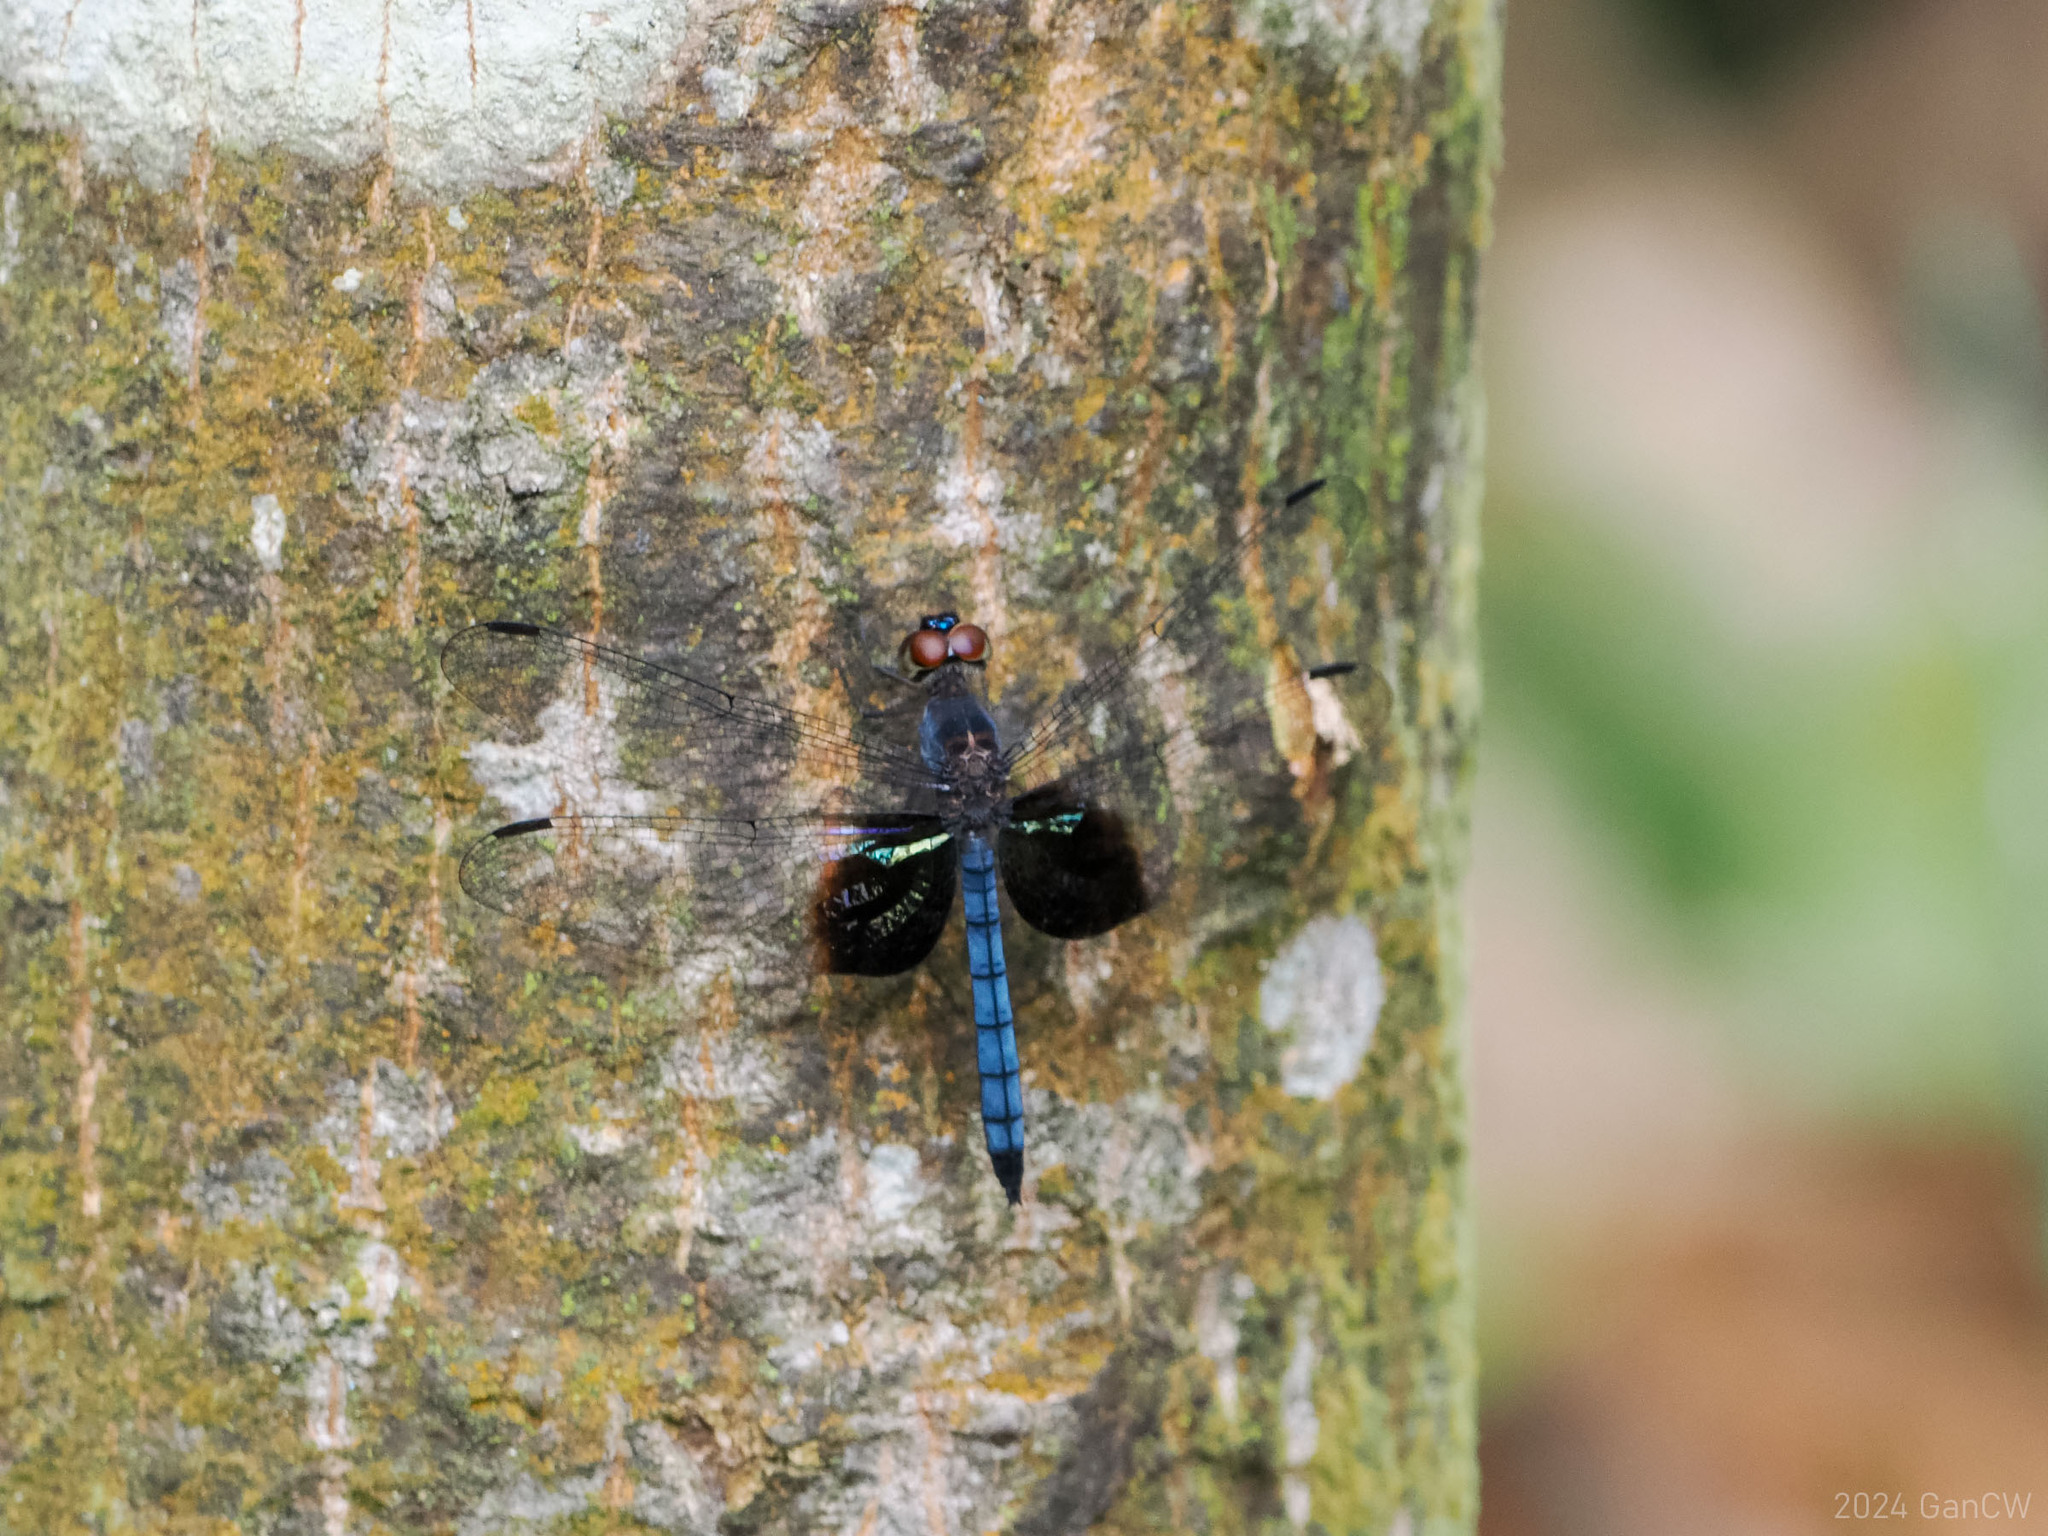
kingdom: Animalia
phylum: Arthropoda
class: Insecta
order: Odonata
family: Libellulidae
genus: Tyriobapta
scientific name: Tyriobapta torrida
